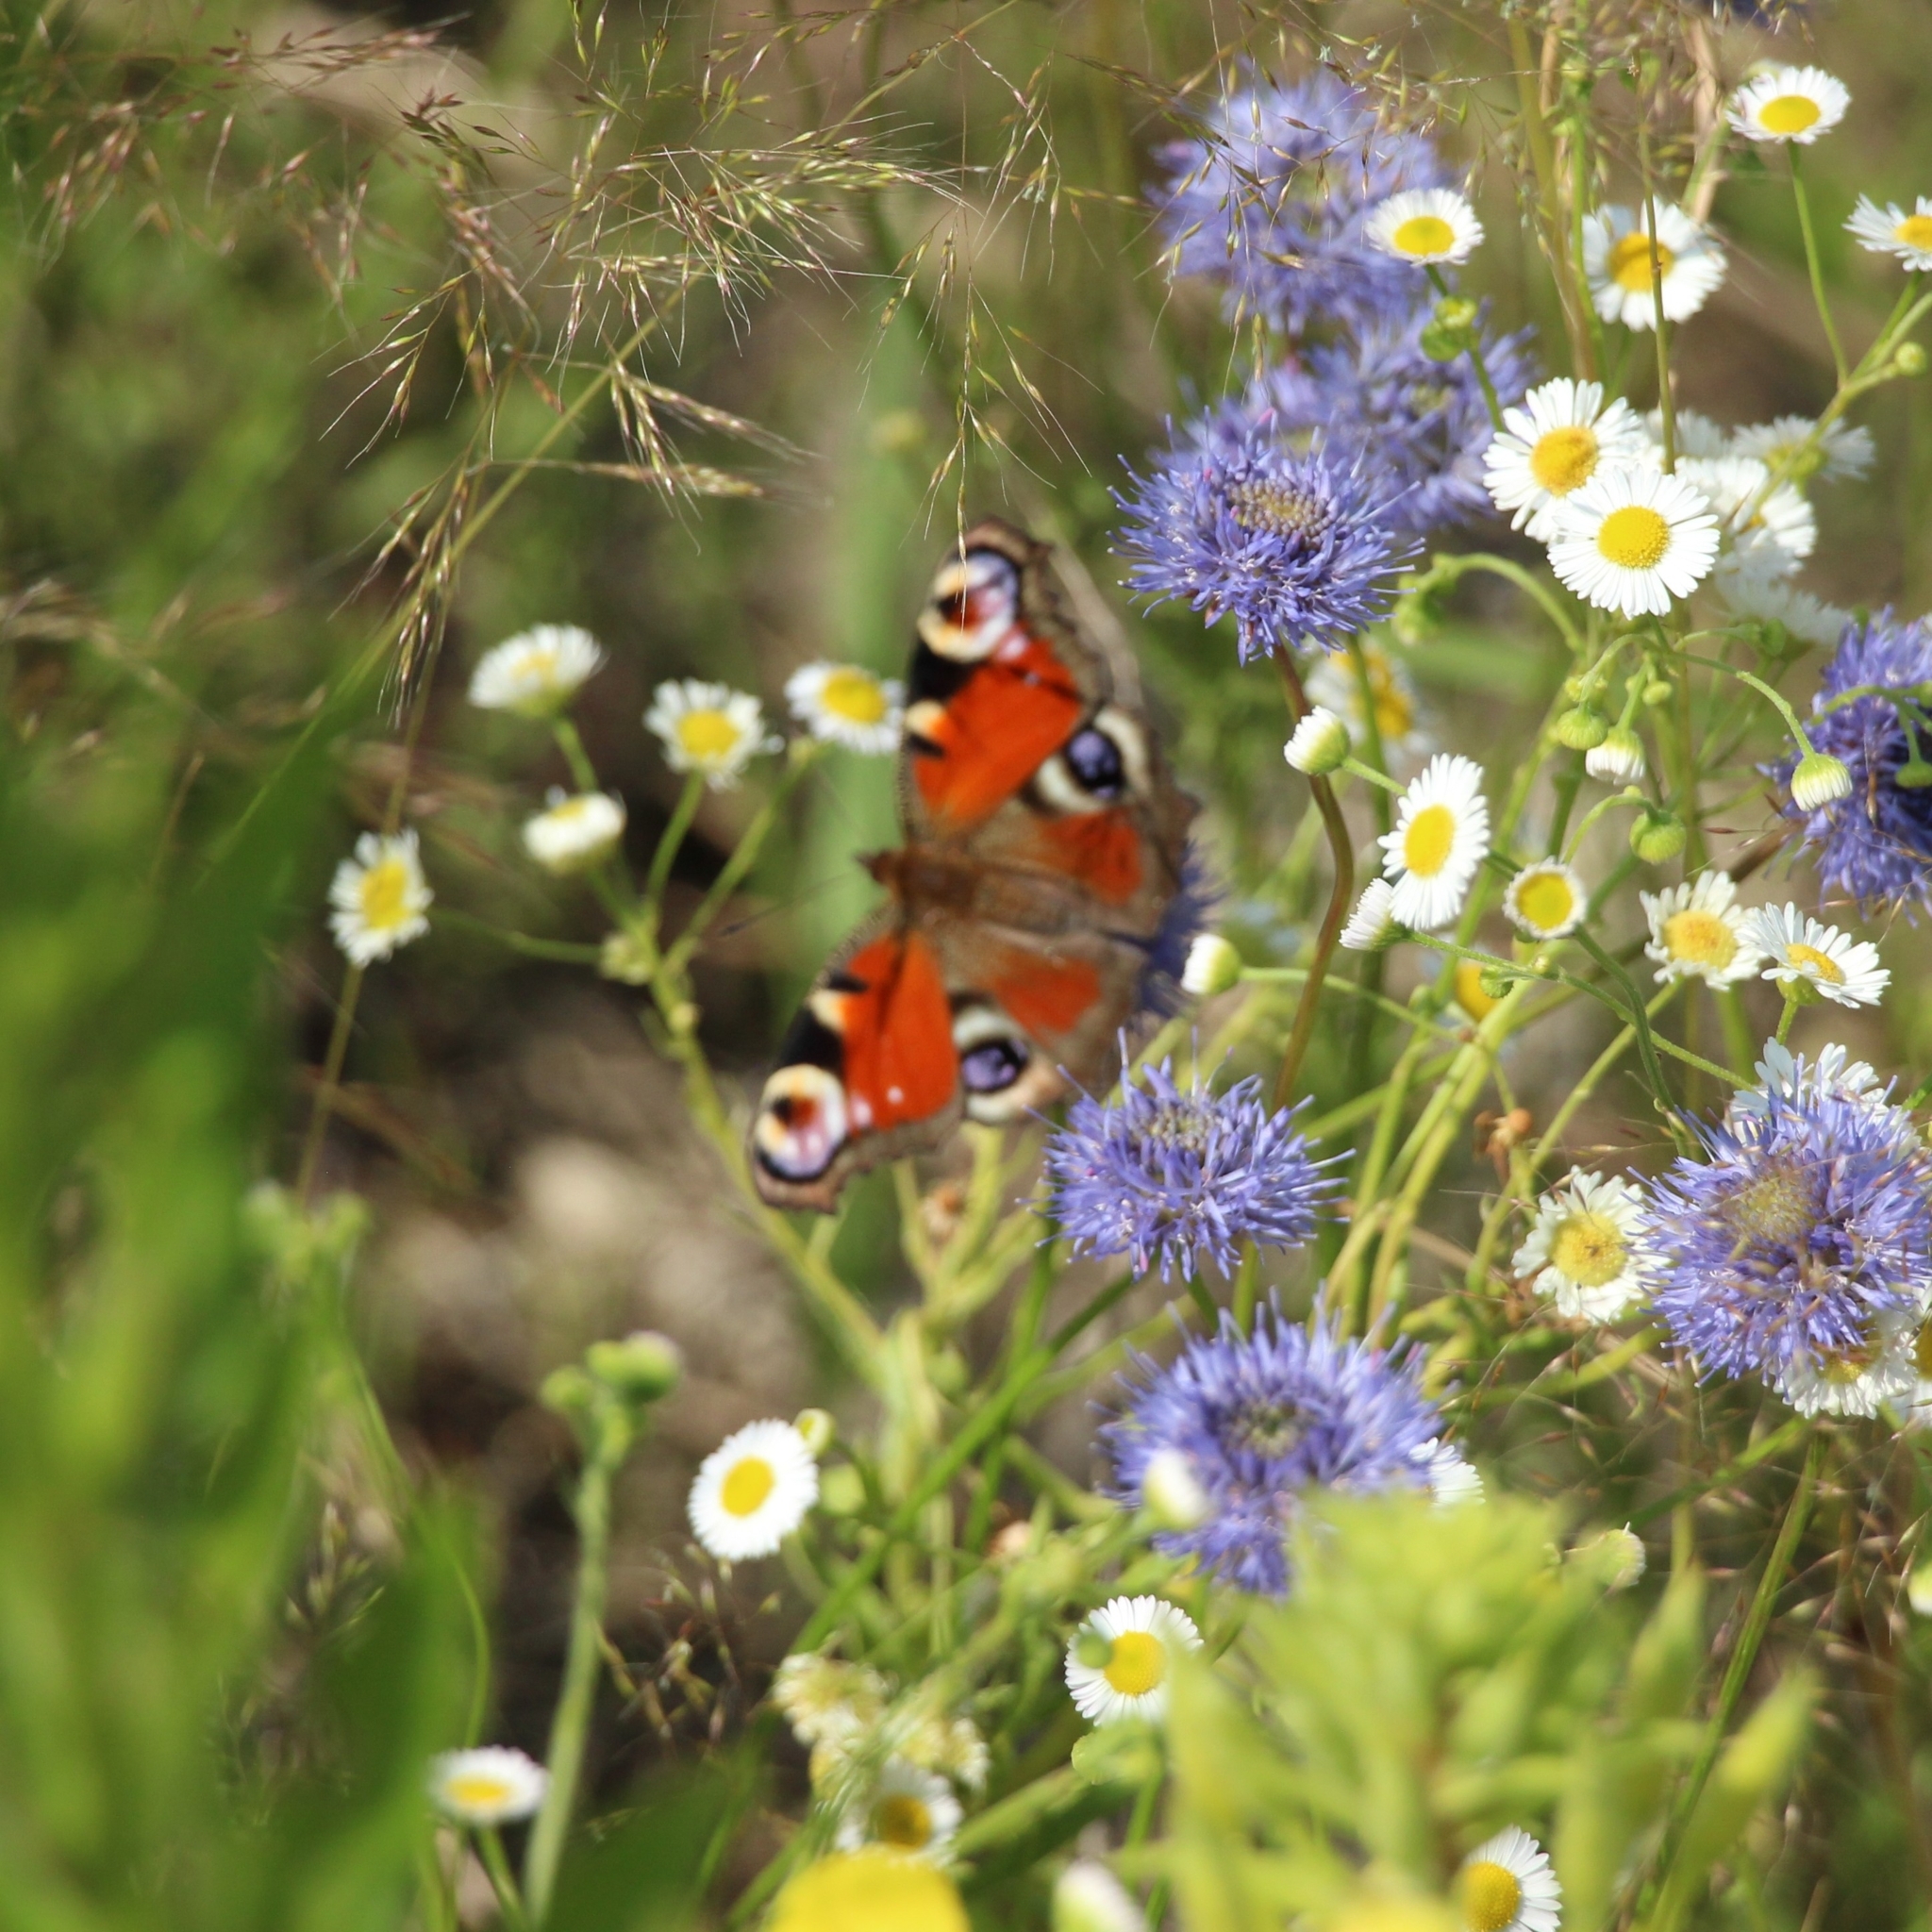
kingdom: Animalia
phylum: Arthropoda
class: Insecta
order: Lepidoptera
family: Nymphalidae
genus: Aglais
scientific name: Aglais io
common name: Peacock
